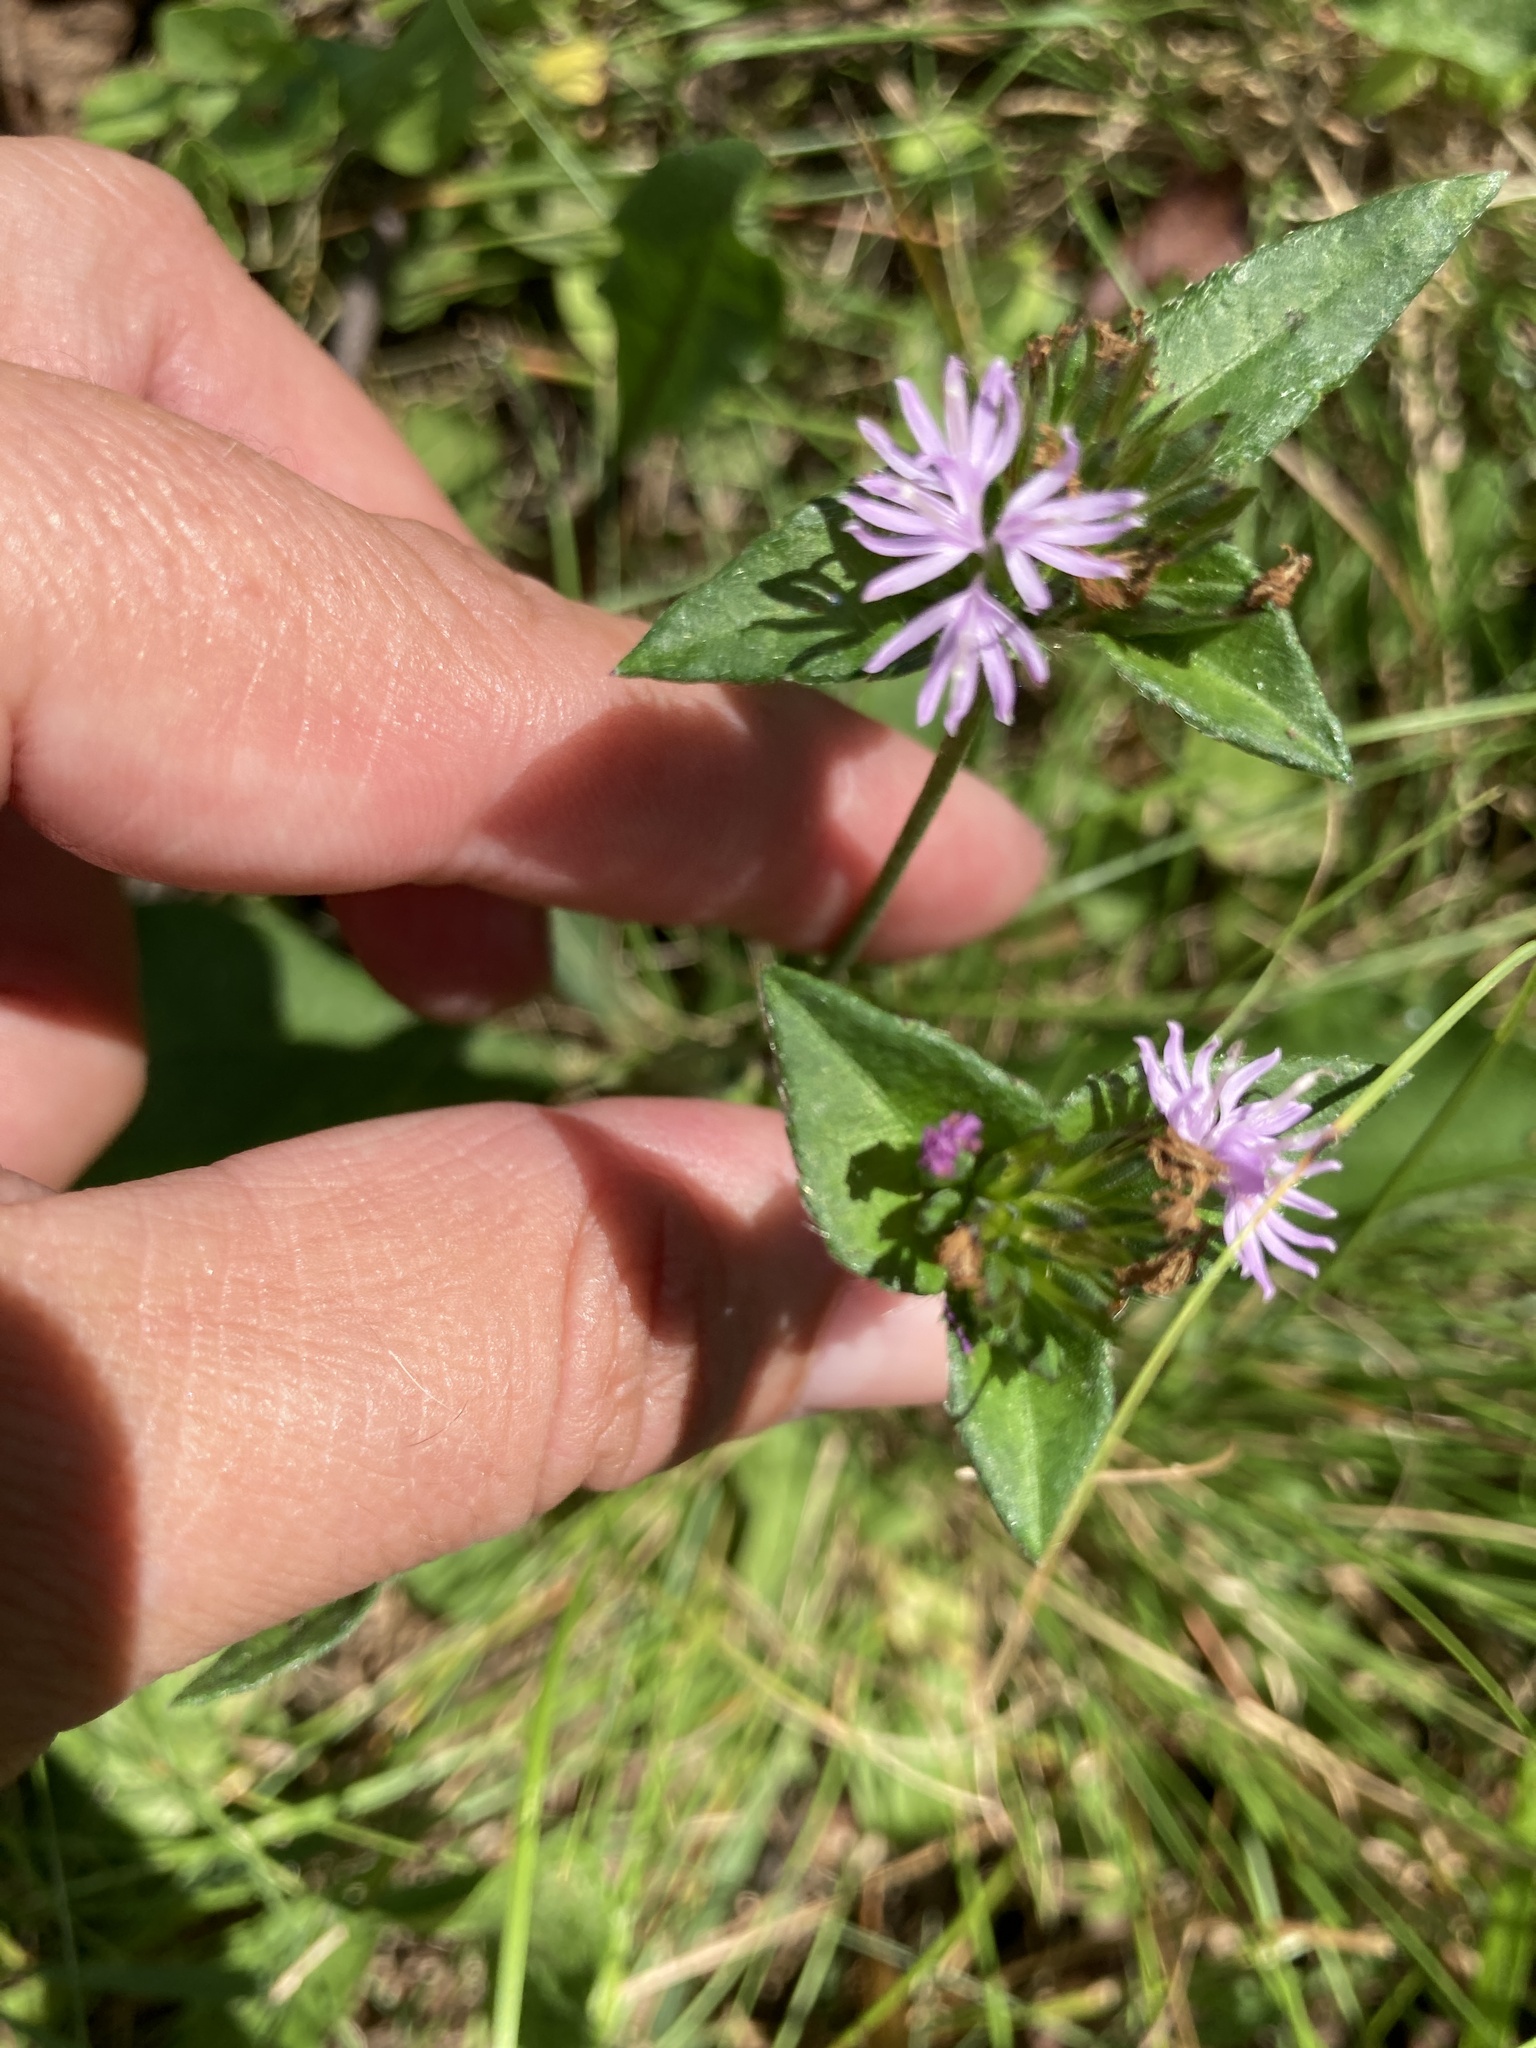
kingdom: Plantae
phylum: Tracheophyta
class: Magnoliopsida
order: Asterales
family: Asteraceae
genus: Elephantopus
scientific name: Elephantopus carolinianus
